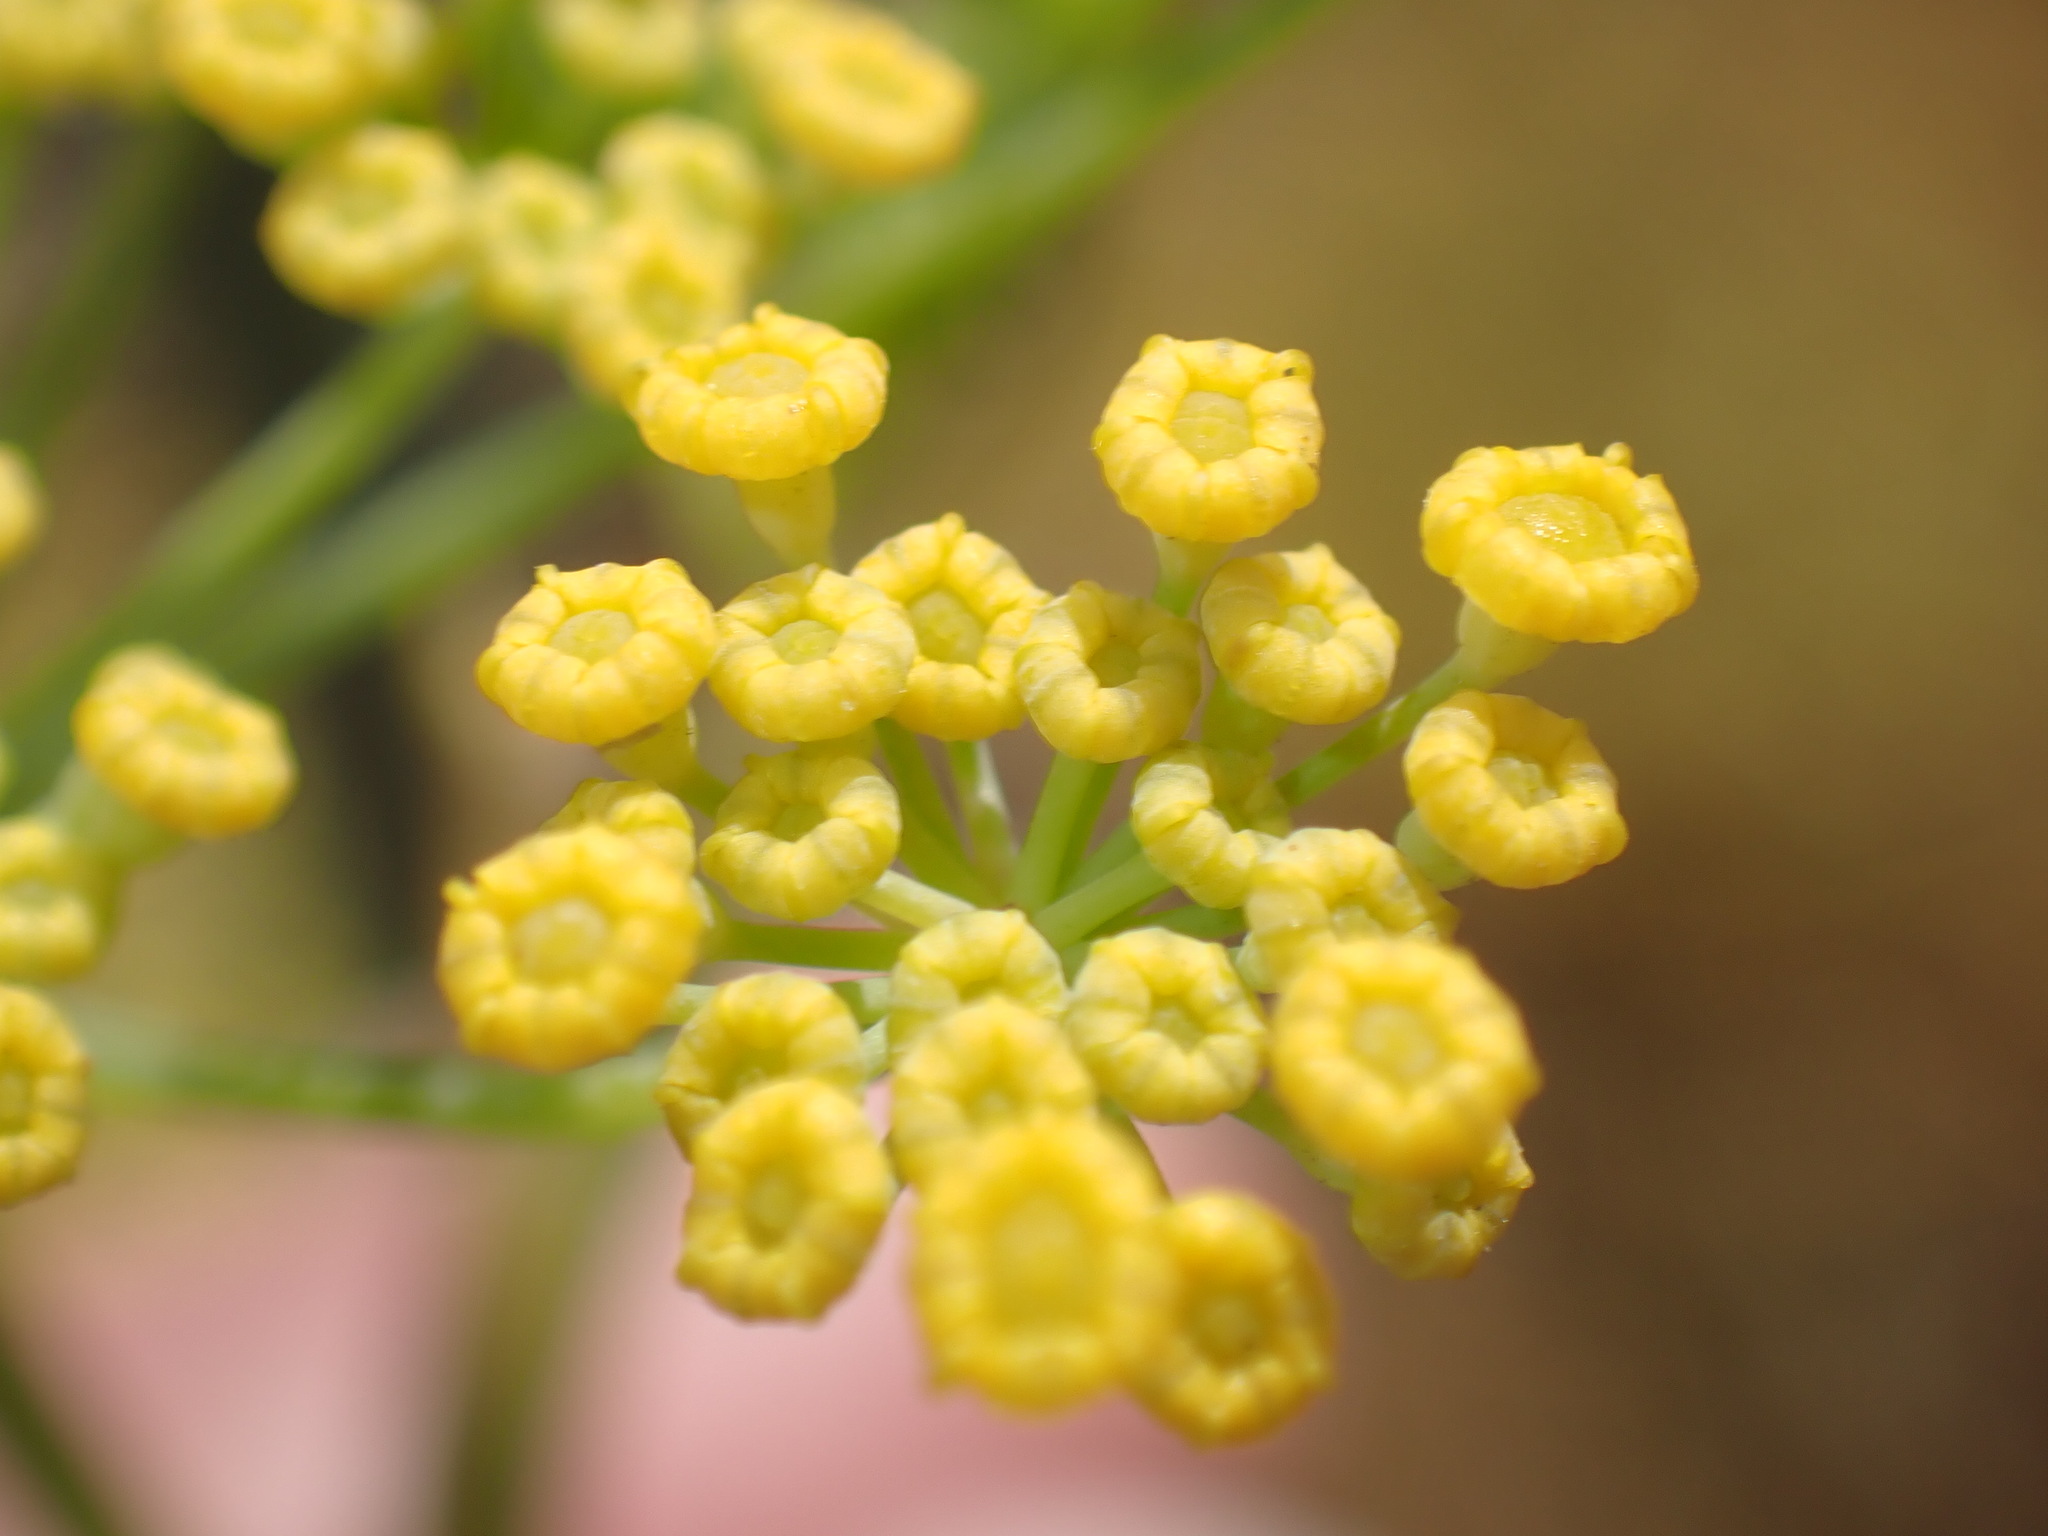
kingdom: Plantae
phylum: Tracheophyta
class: Magnoliopsida
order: Apiales
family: Apiaceae
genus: Foeniculum
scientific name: Foeniculum vulgare
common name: Fennel
